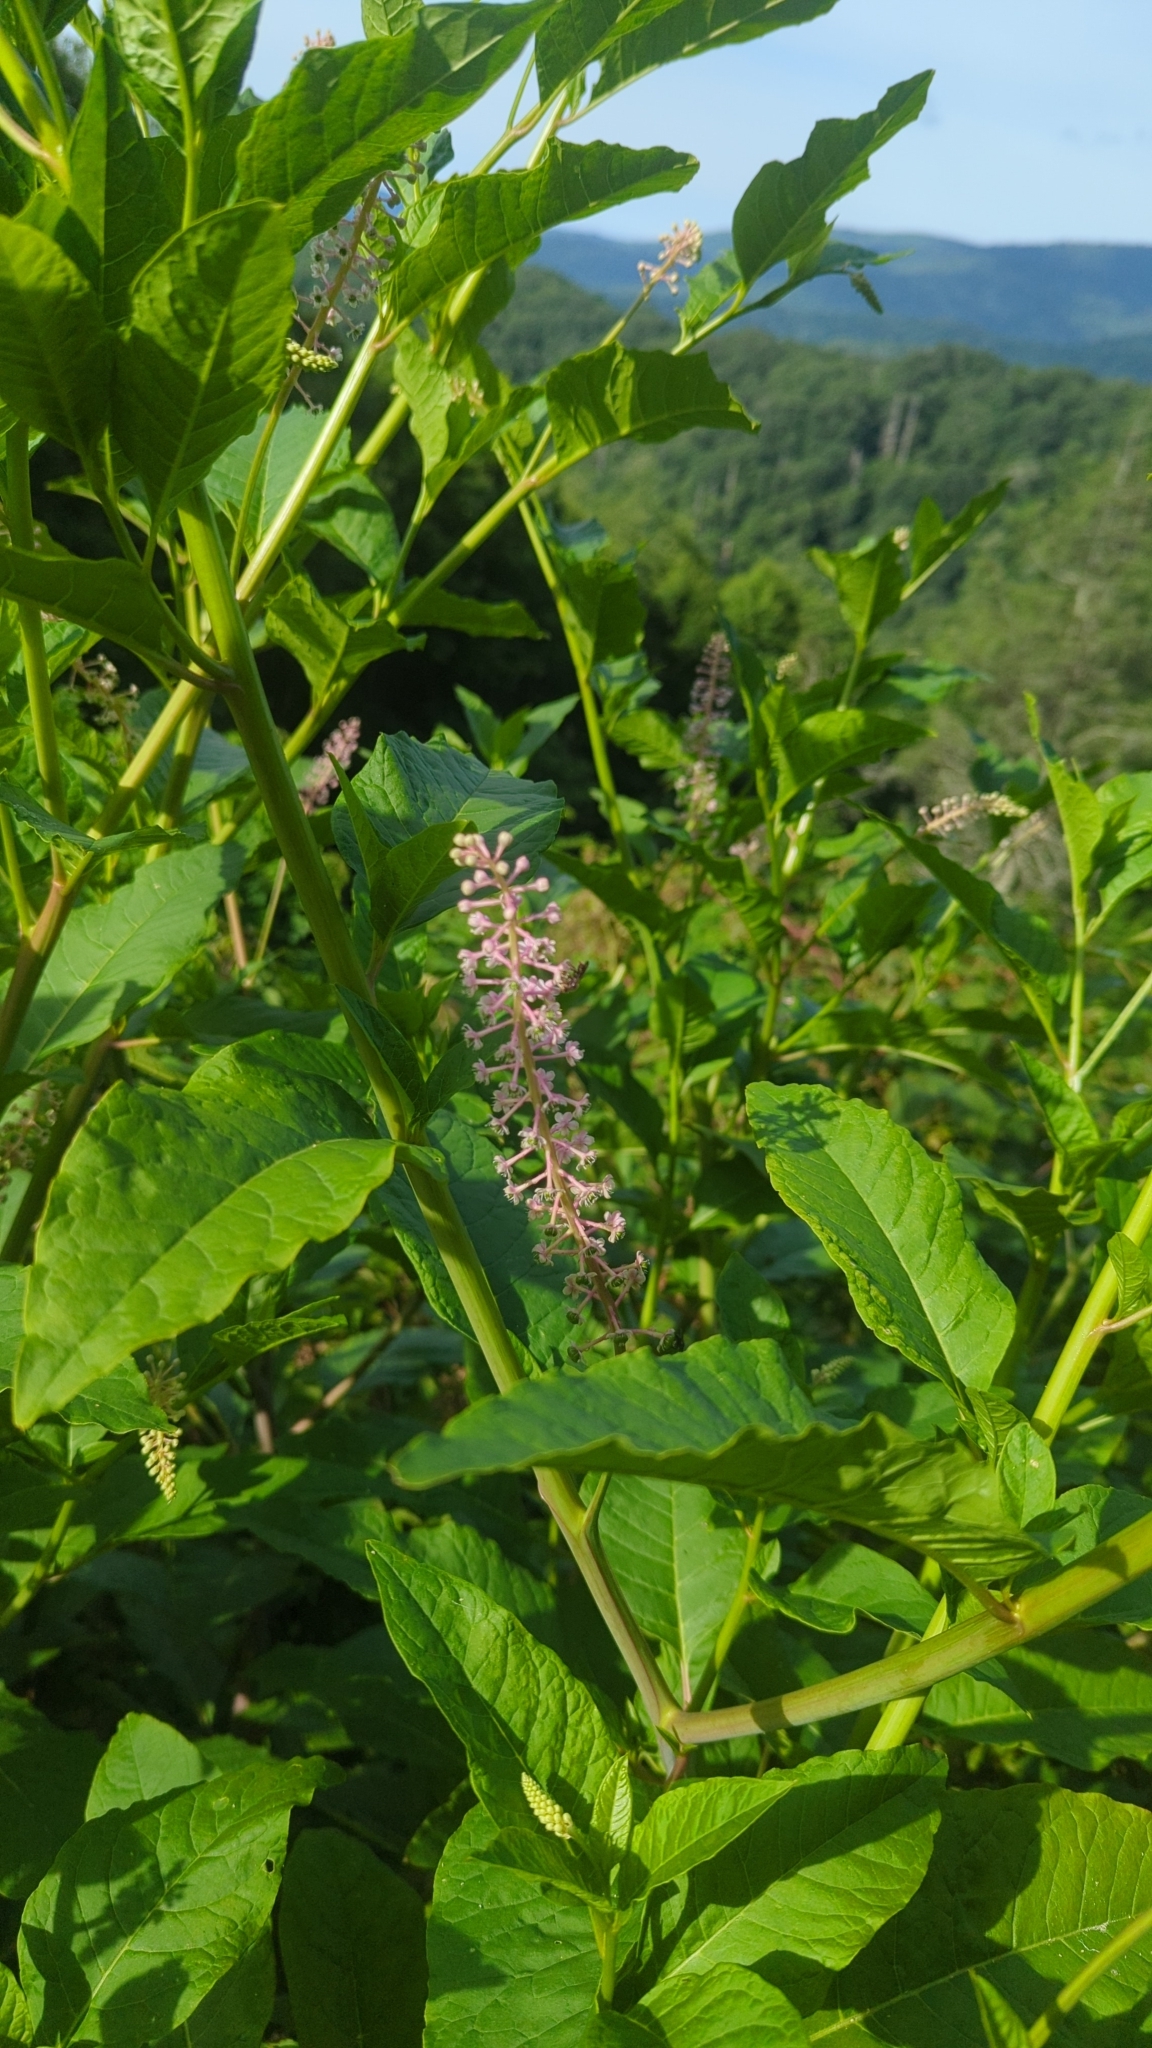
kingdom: Plantae
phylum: Tracheophyta
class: Magnoliopsida
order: Caryophyllales
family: Phytolaccaceae
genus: Phytolacca
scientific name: Phytolacca americana
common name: American pokeweed
